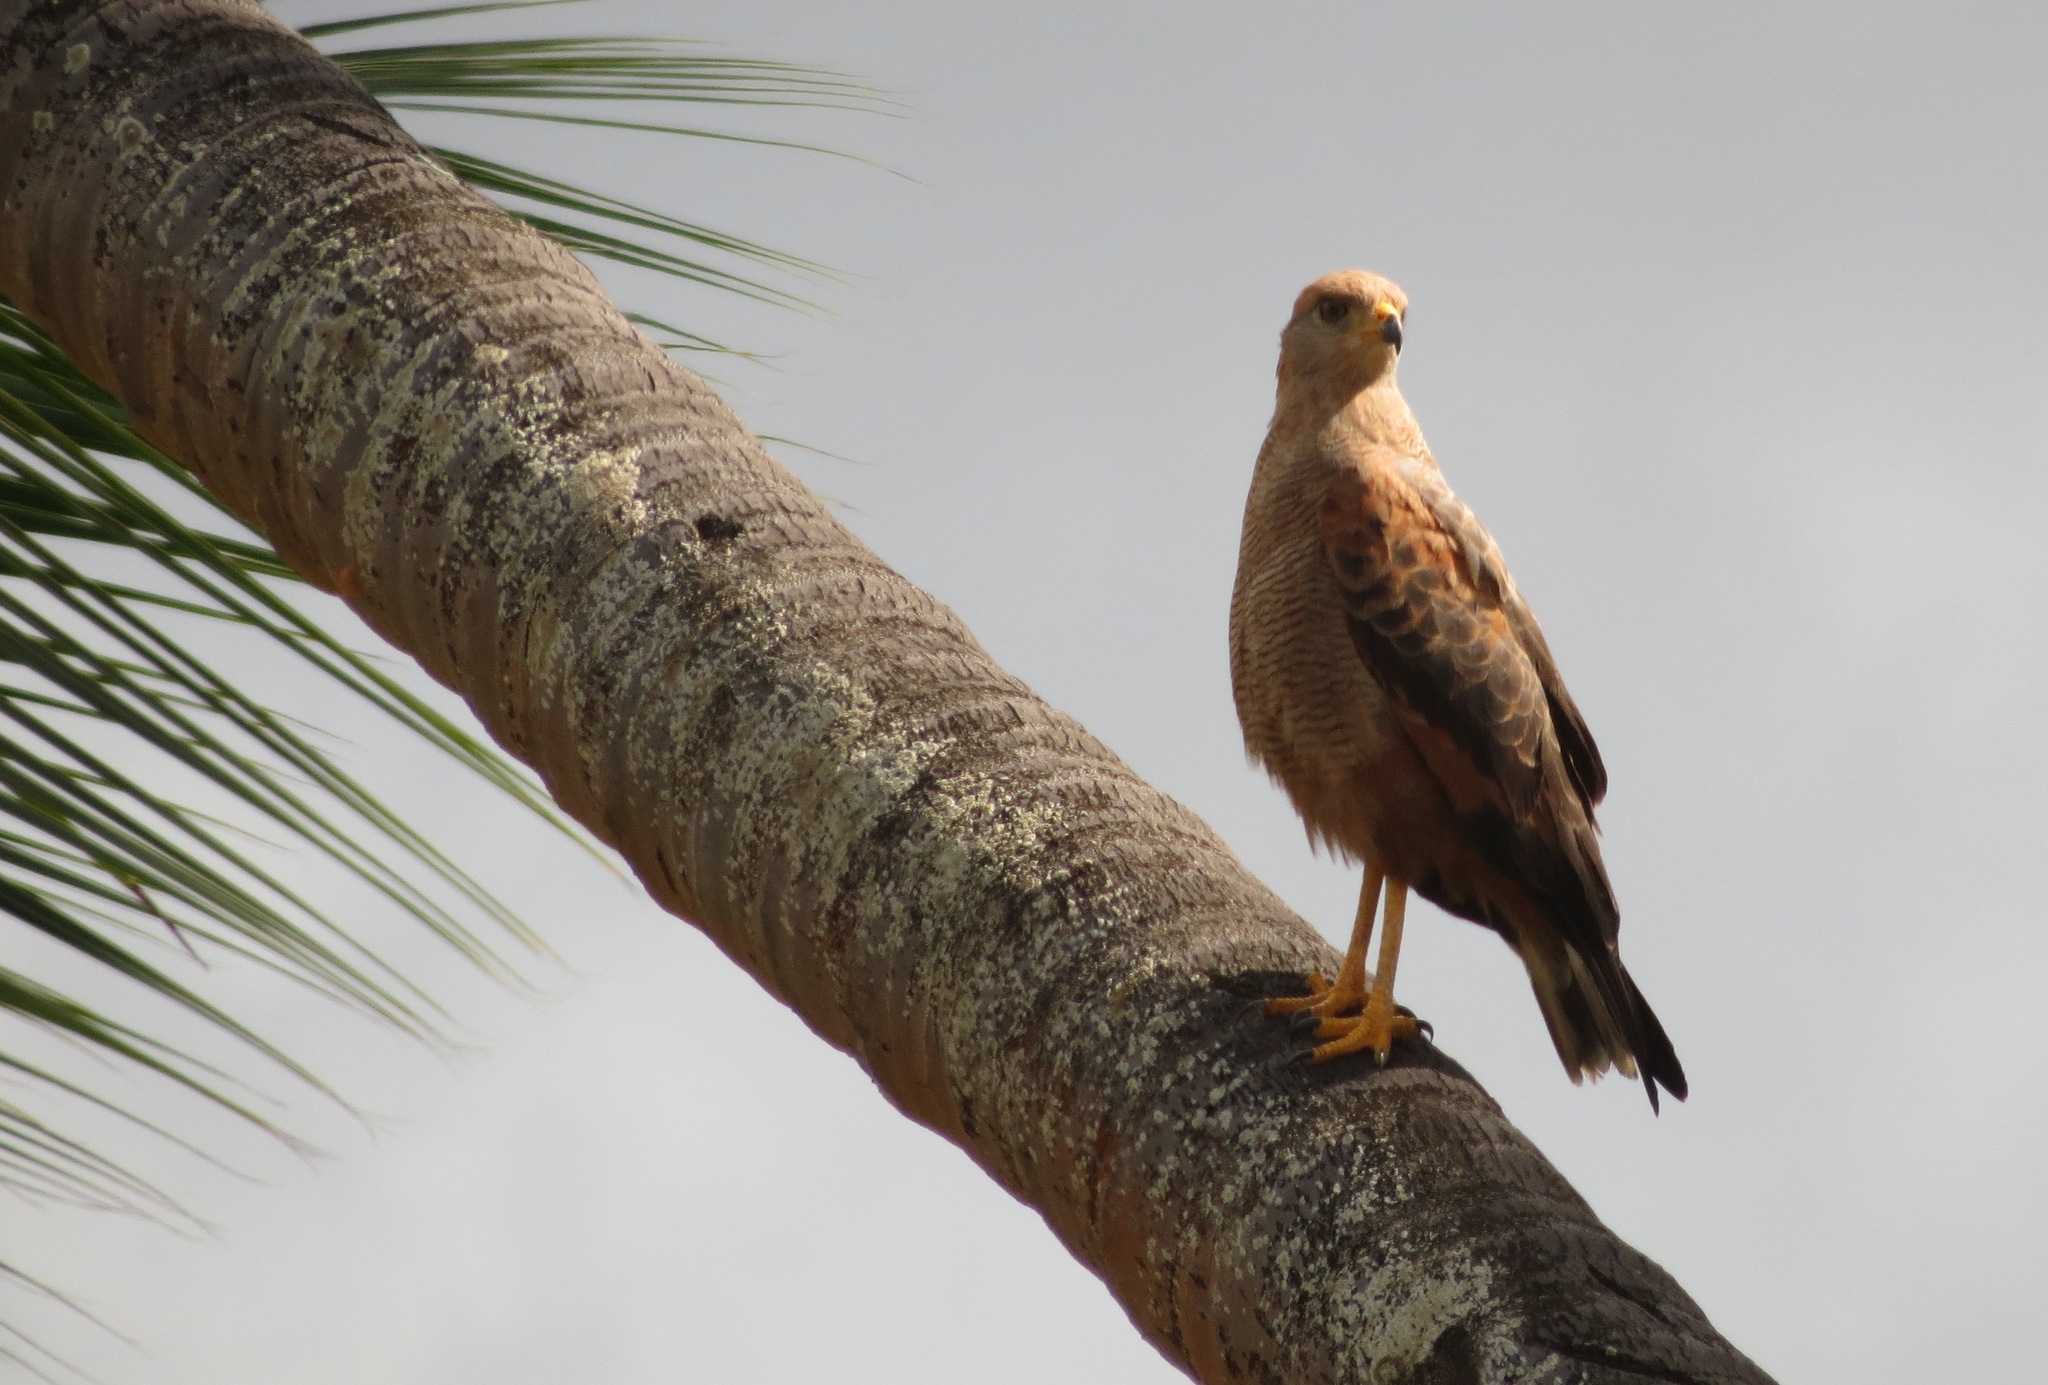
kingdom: Animalia
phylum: Chordata
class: Aves
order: Accipitriformes
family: Accipitridae
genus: Buteogallus
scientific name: Buteogallus meridionalis
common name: Savanna hawk
